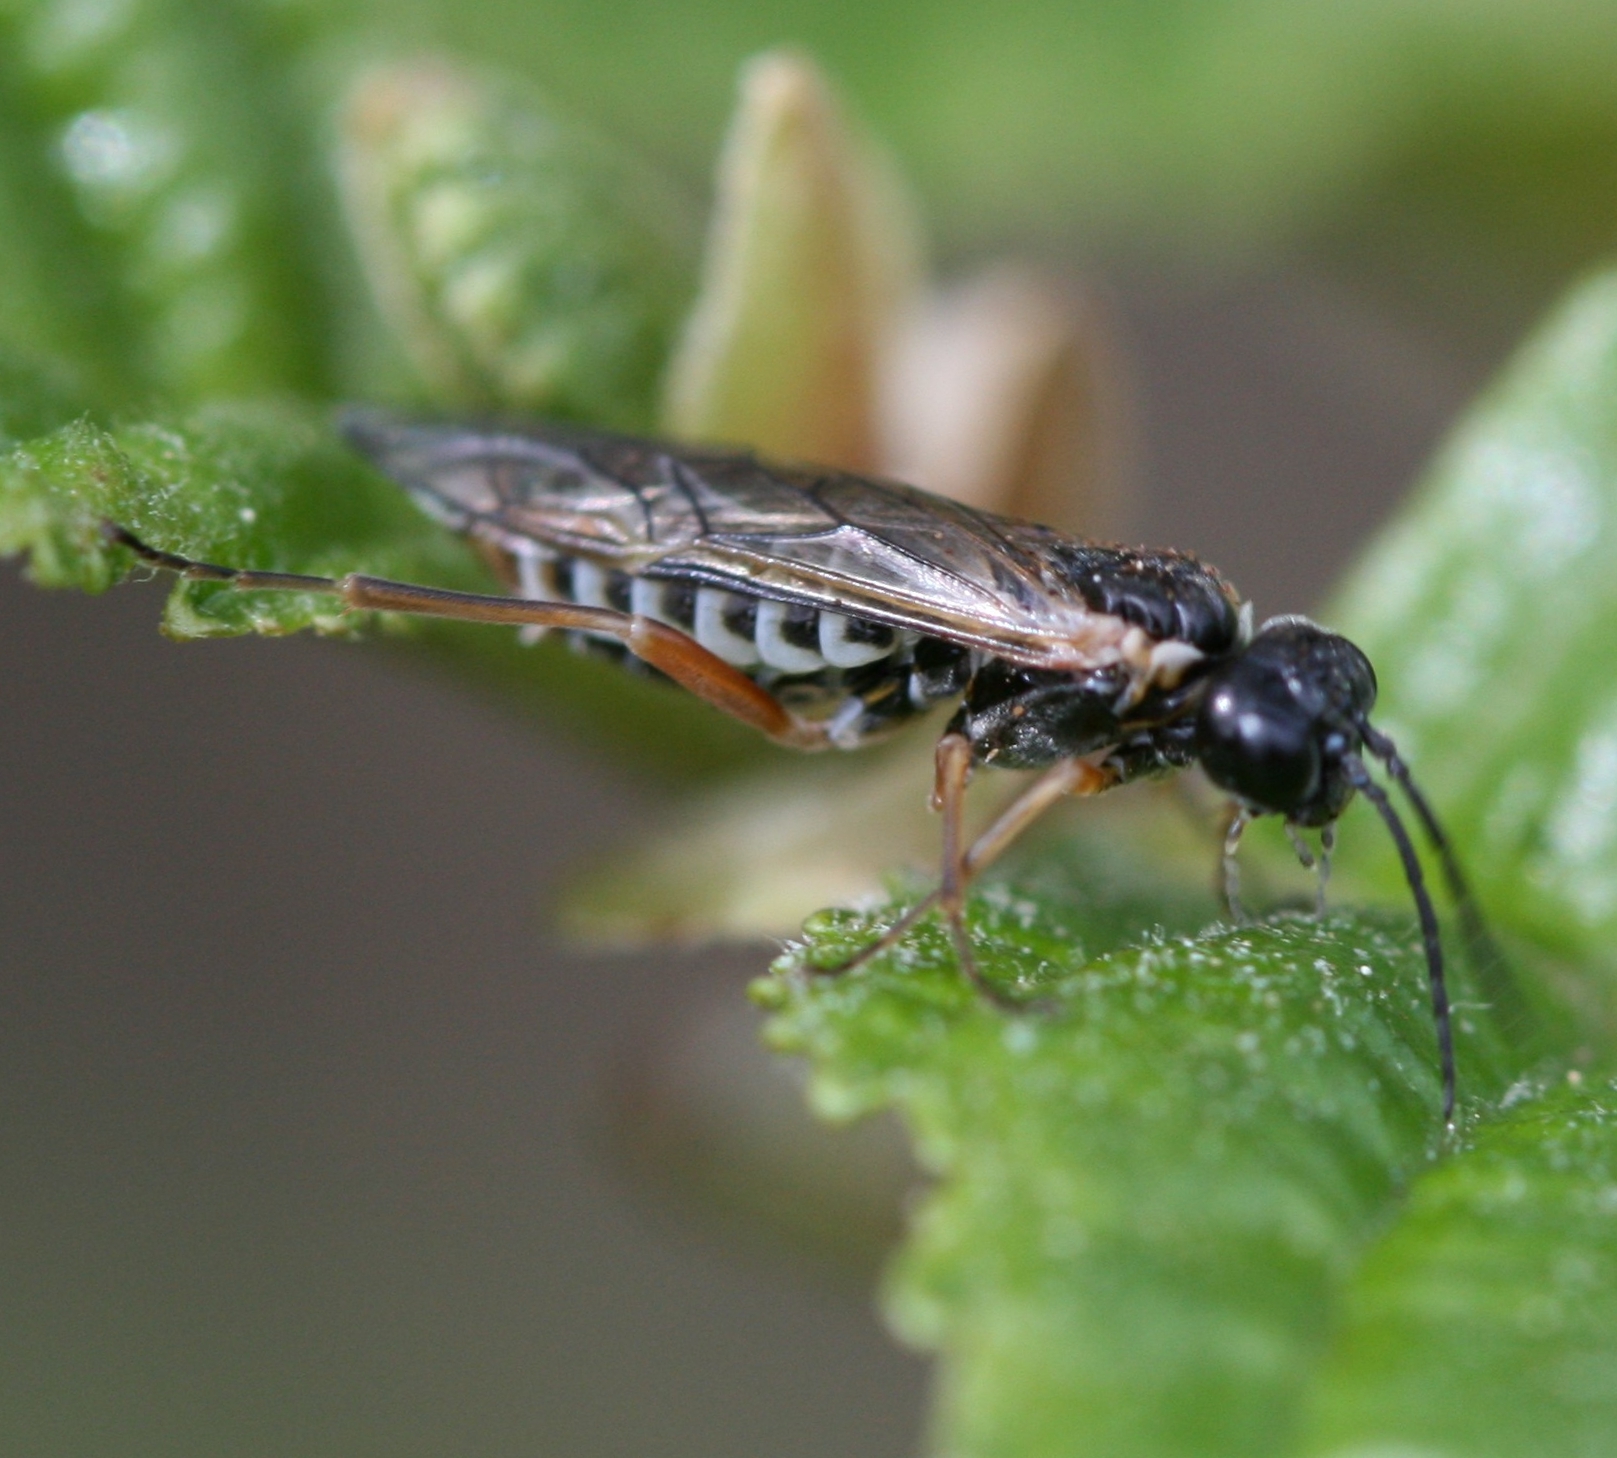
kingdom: Animalia
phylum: Arthropoda
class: Insecta
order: Hymenoptera
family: Tenthredinidae
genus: Monsoma
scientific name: Monsoma pulveratum
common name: Green alder sawfly
